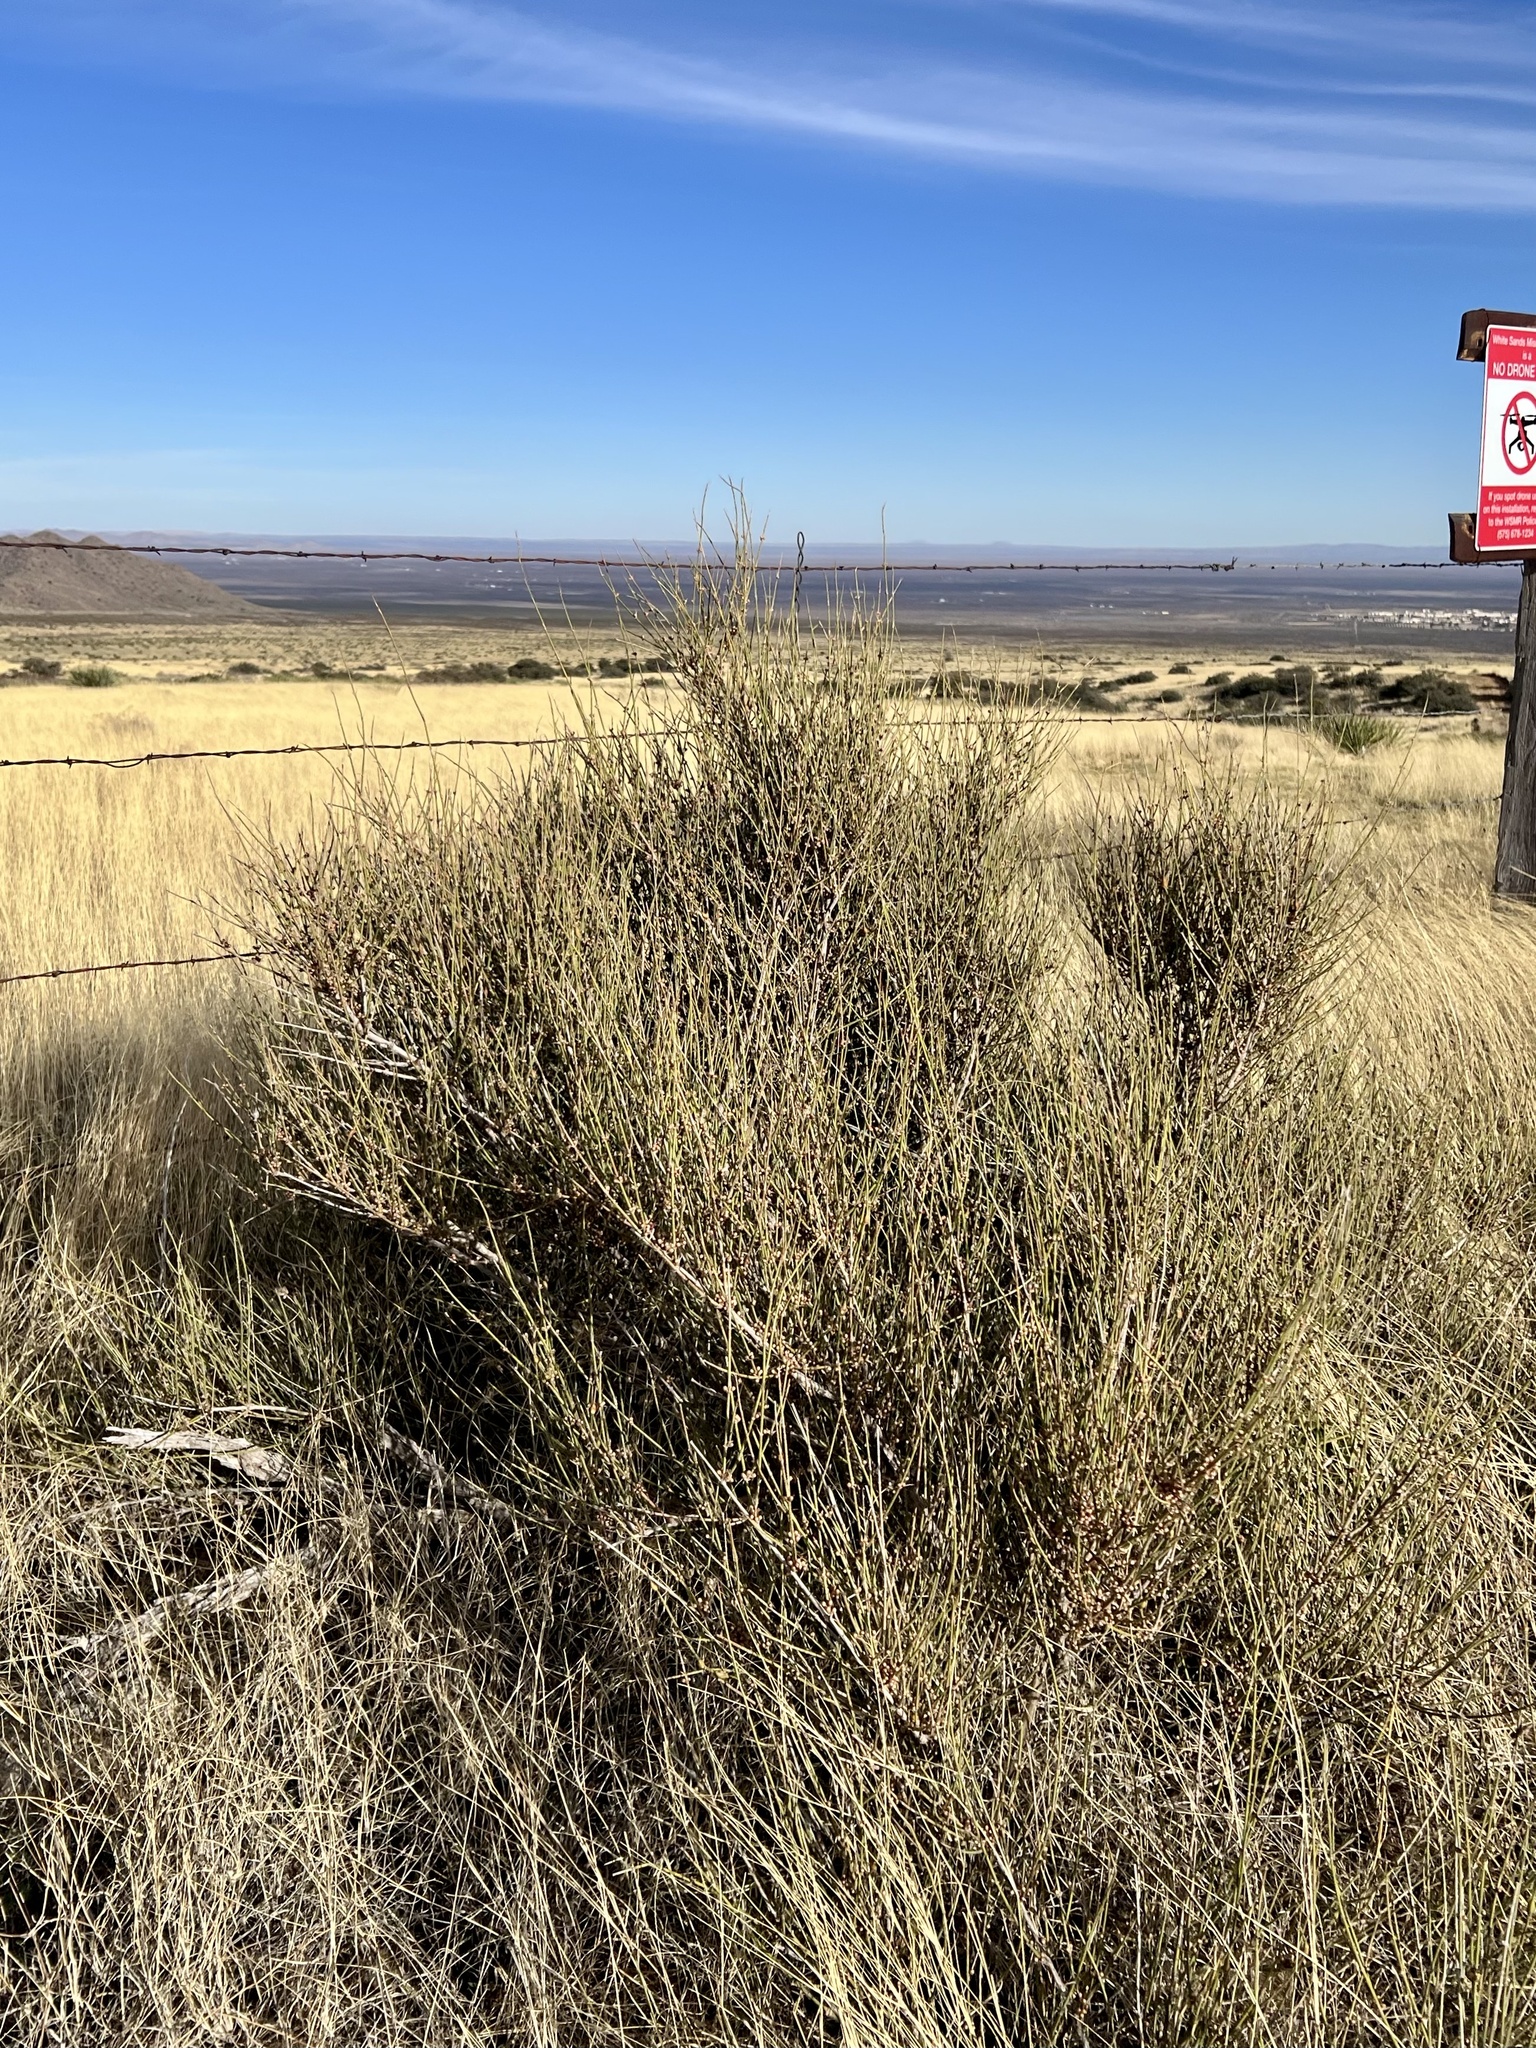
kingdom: Plantae
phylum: Tracheophyta
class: Gnetopsida
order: Ephedrales
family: Ephedraceae
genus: Ephedra
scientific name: Ephedra trifurca
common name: Mexican-tea
